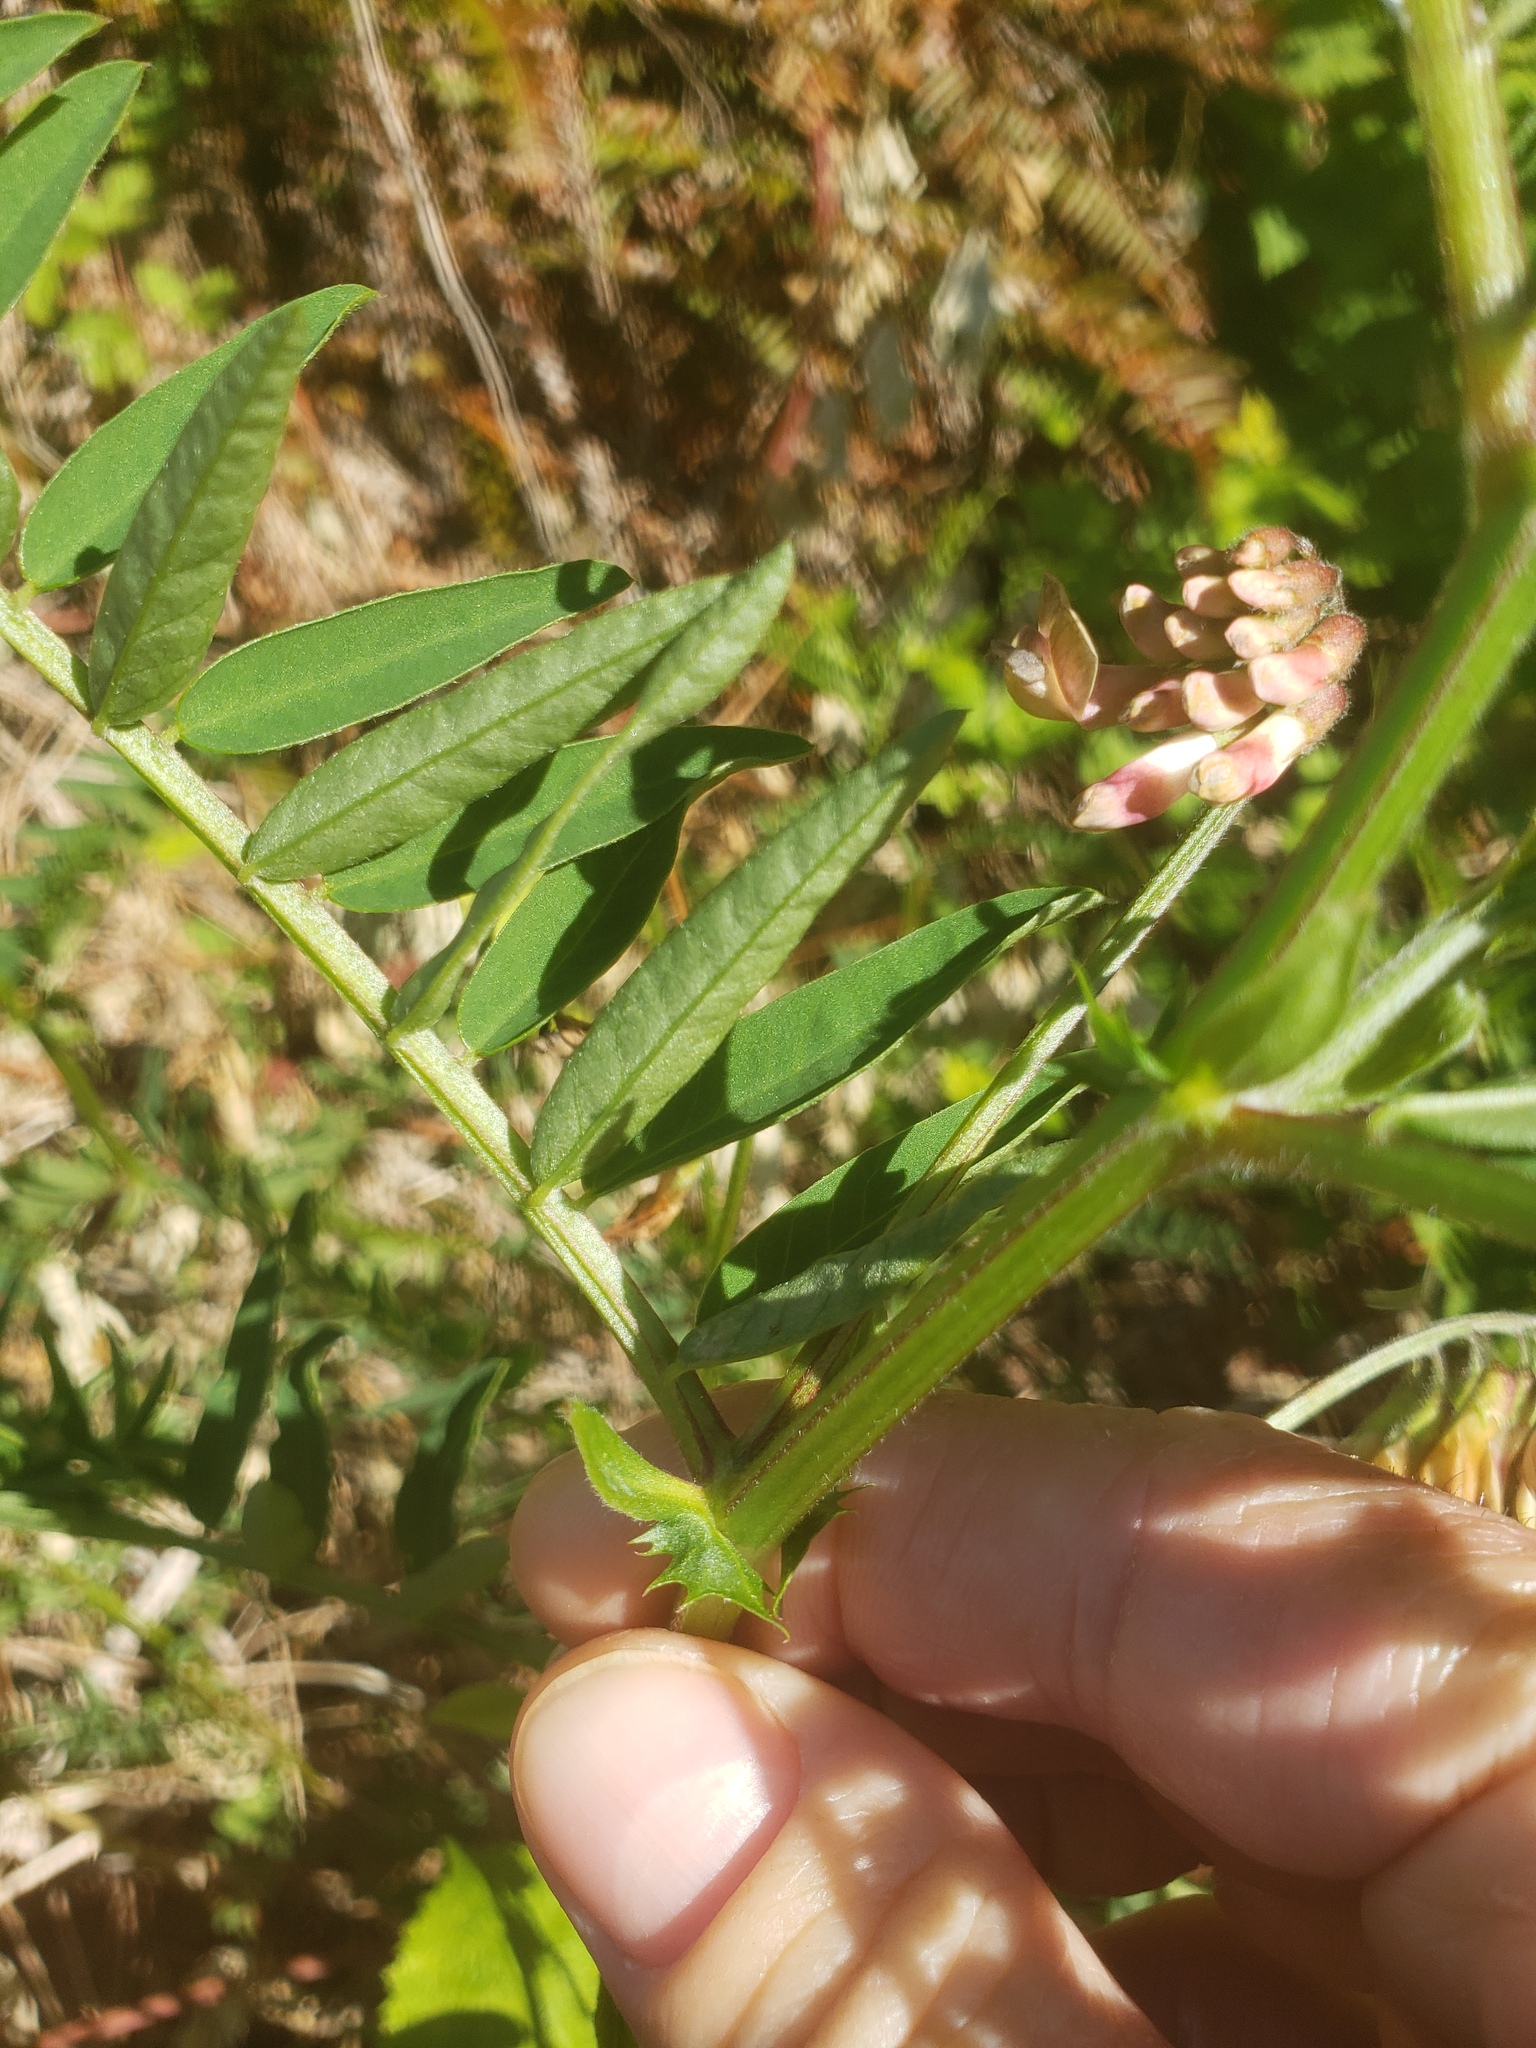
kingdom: Plantae
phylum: Tracheophyta
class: Magnoliopsida
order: Fabales
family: Fabaceae
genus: Vicia
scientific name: Vicia
